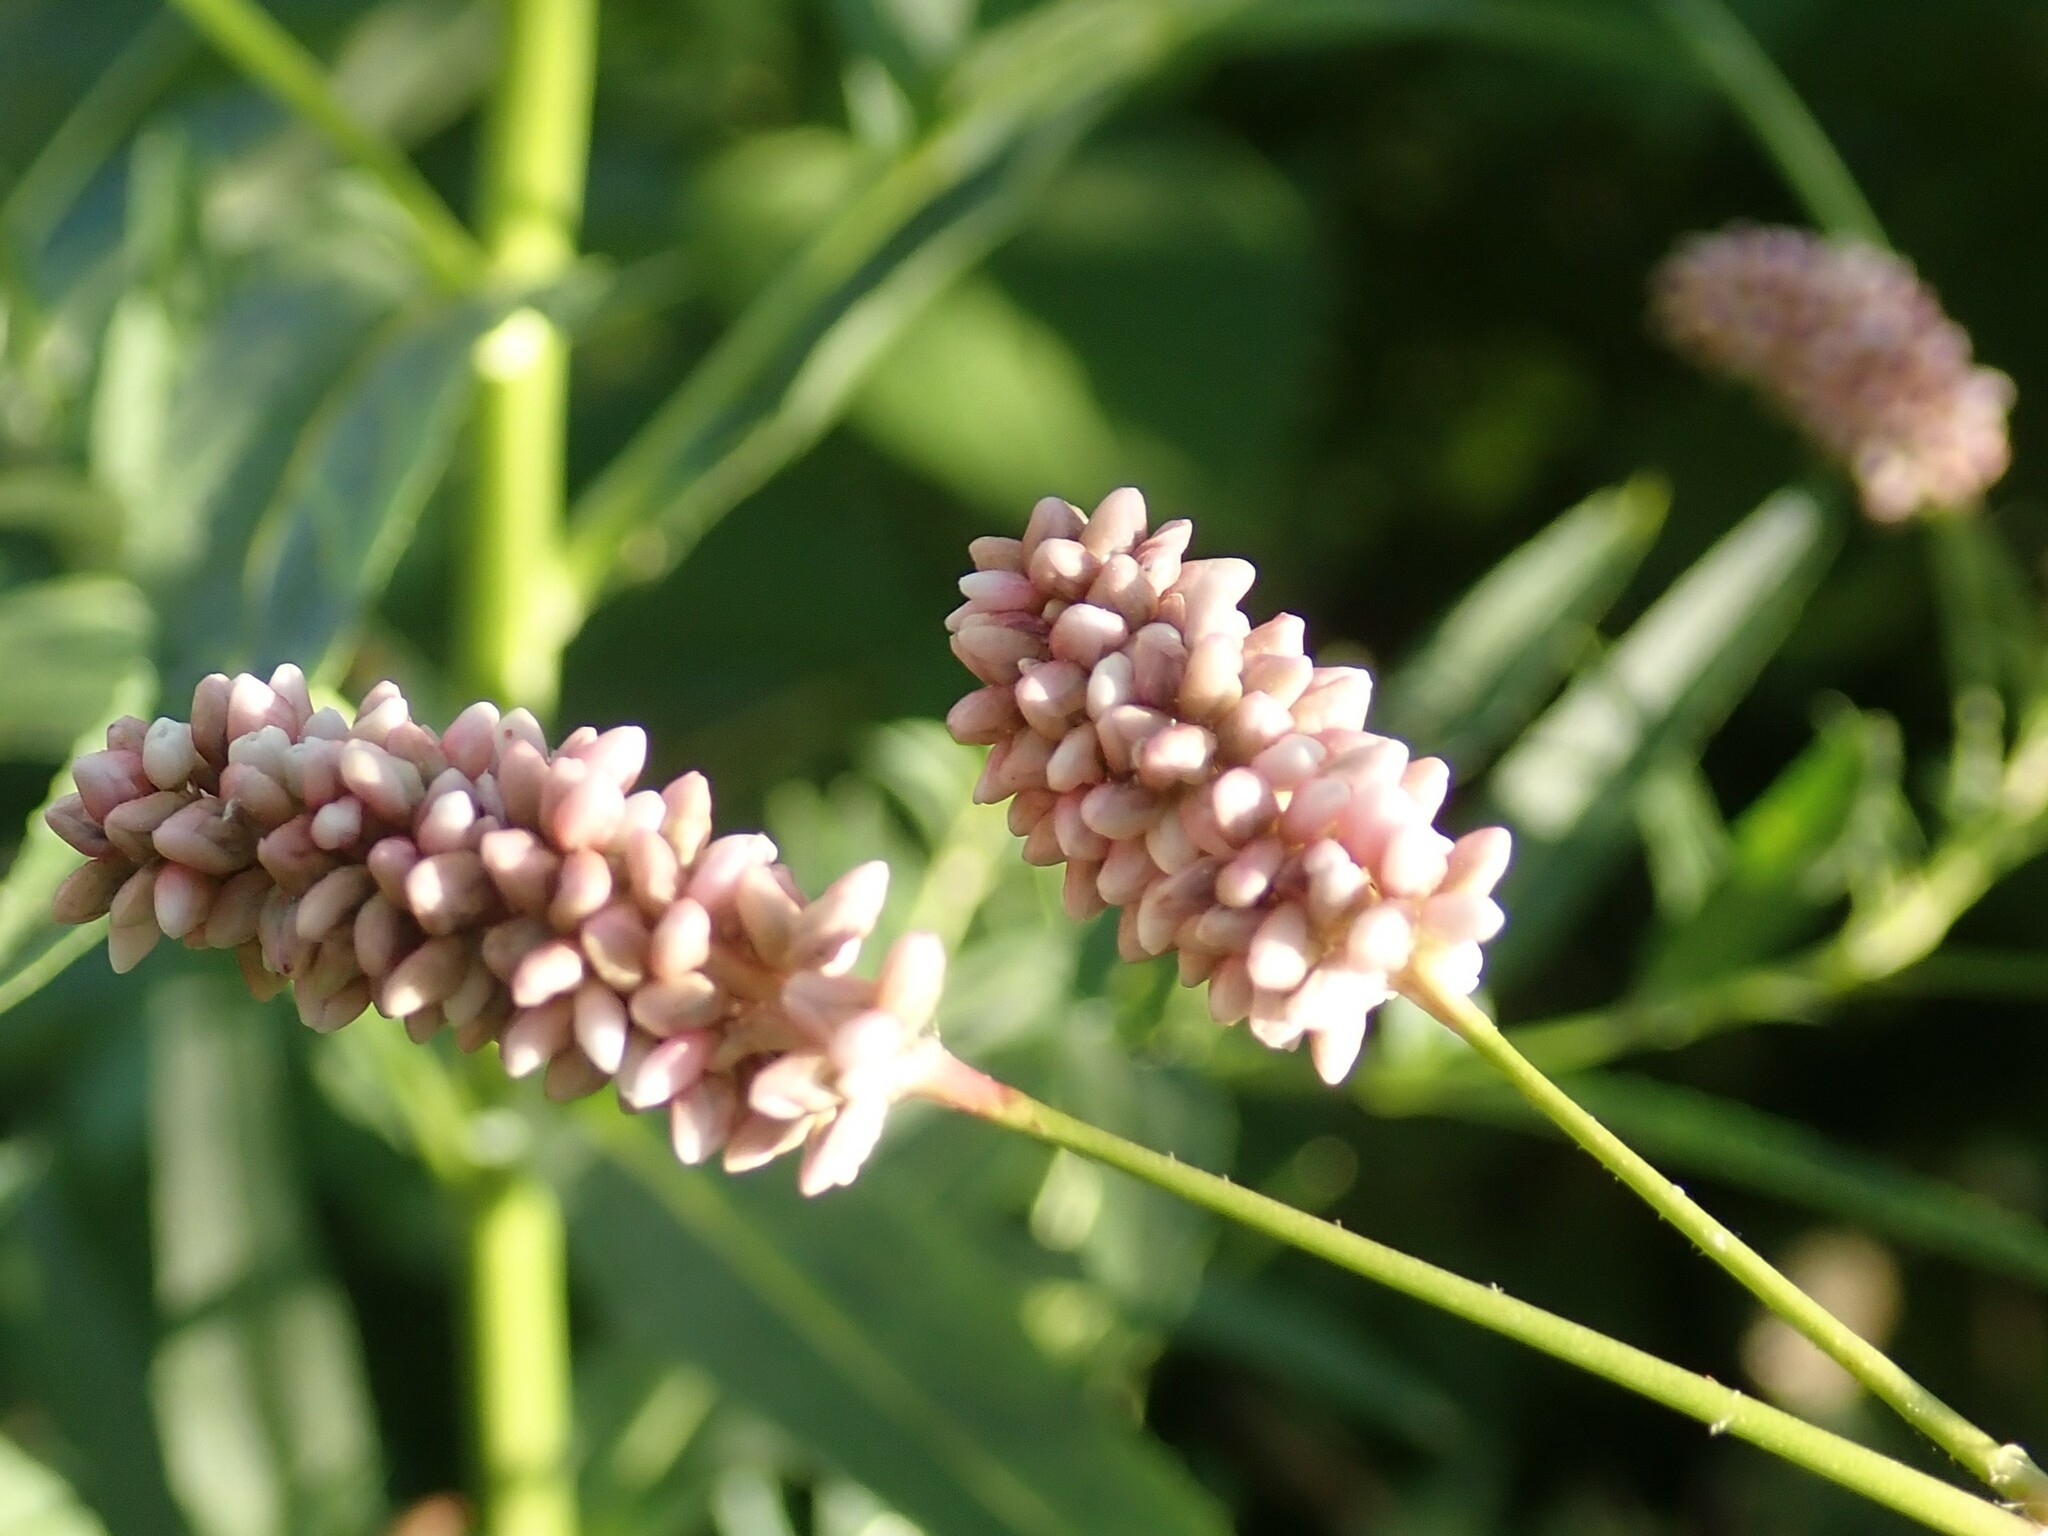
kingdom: Plantae
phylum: Tracheophyta
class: Magnoliopsida
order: Caryophyllales
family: Polygonaceae
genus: Persicaria
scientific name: Persicaria maculosa
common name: Redshank
